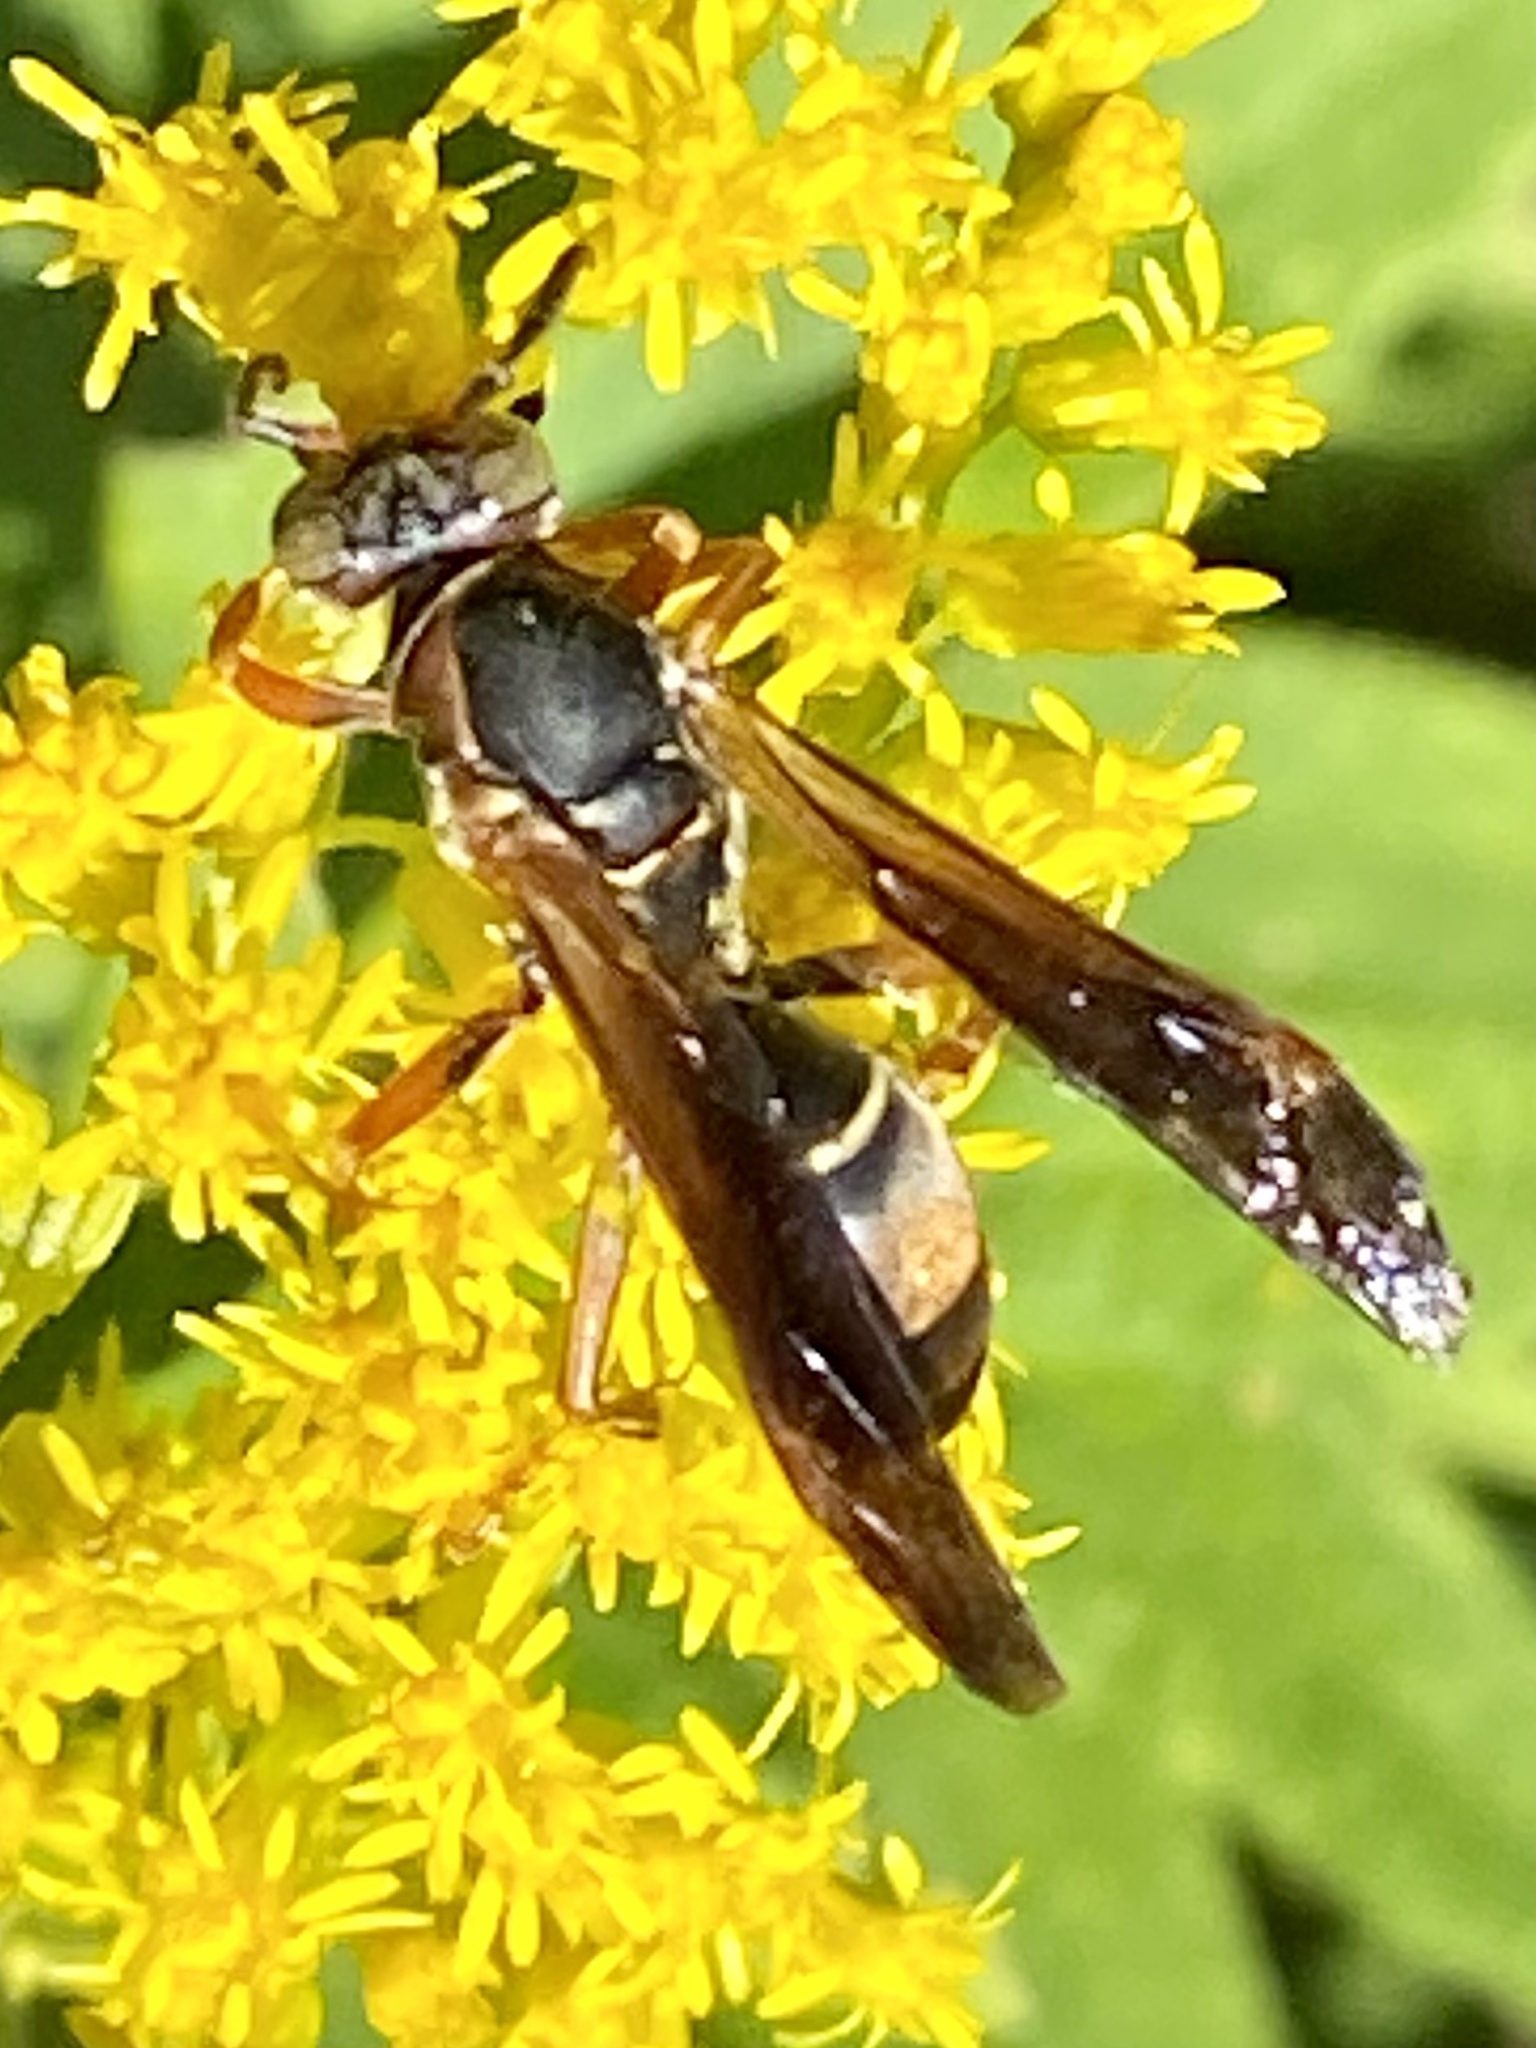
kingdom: Animalia
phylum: Arthropoda
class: Insecta
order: Hymenoptera
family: Eumenidae
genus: Polistes
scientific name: Polistes fuscatus
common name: Dark paper wasp
